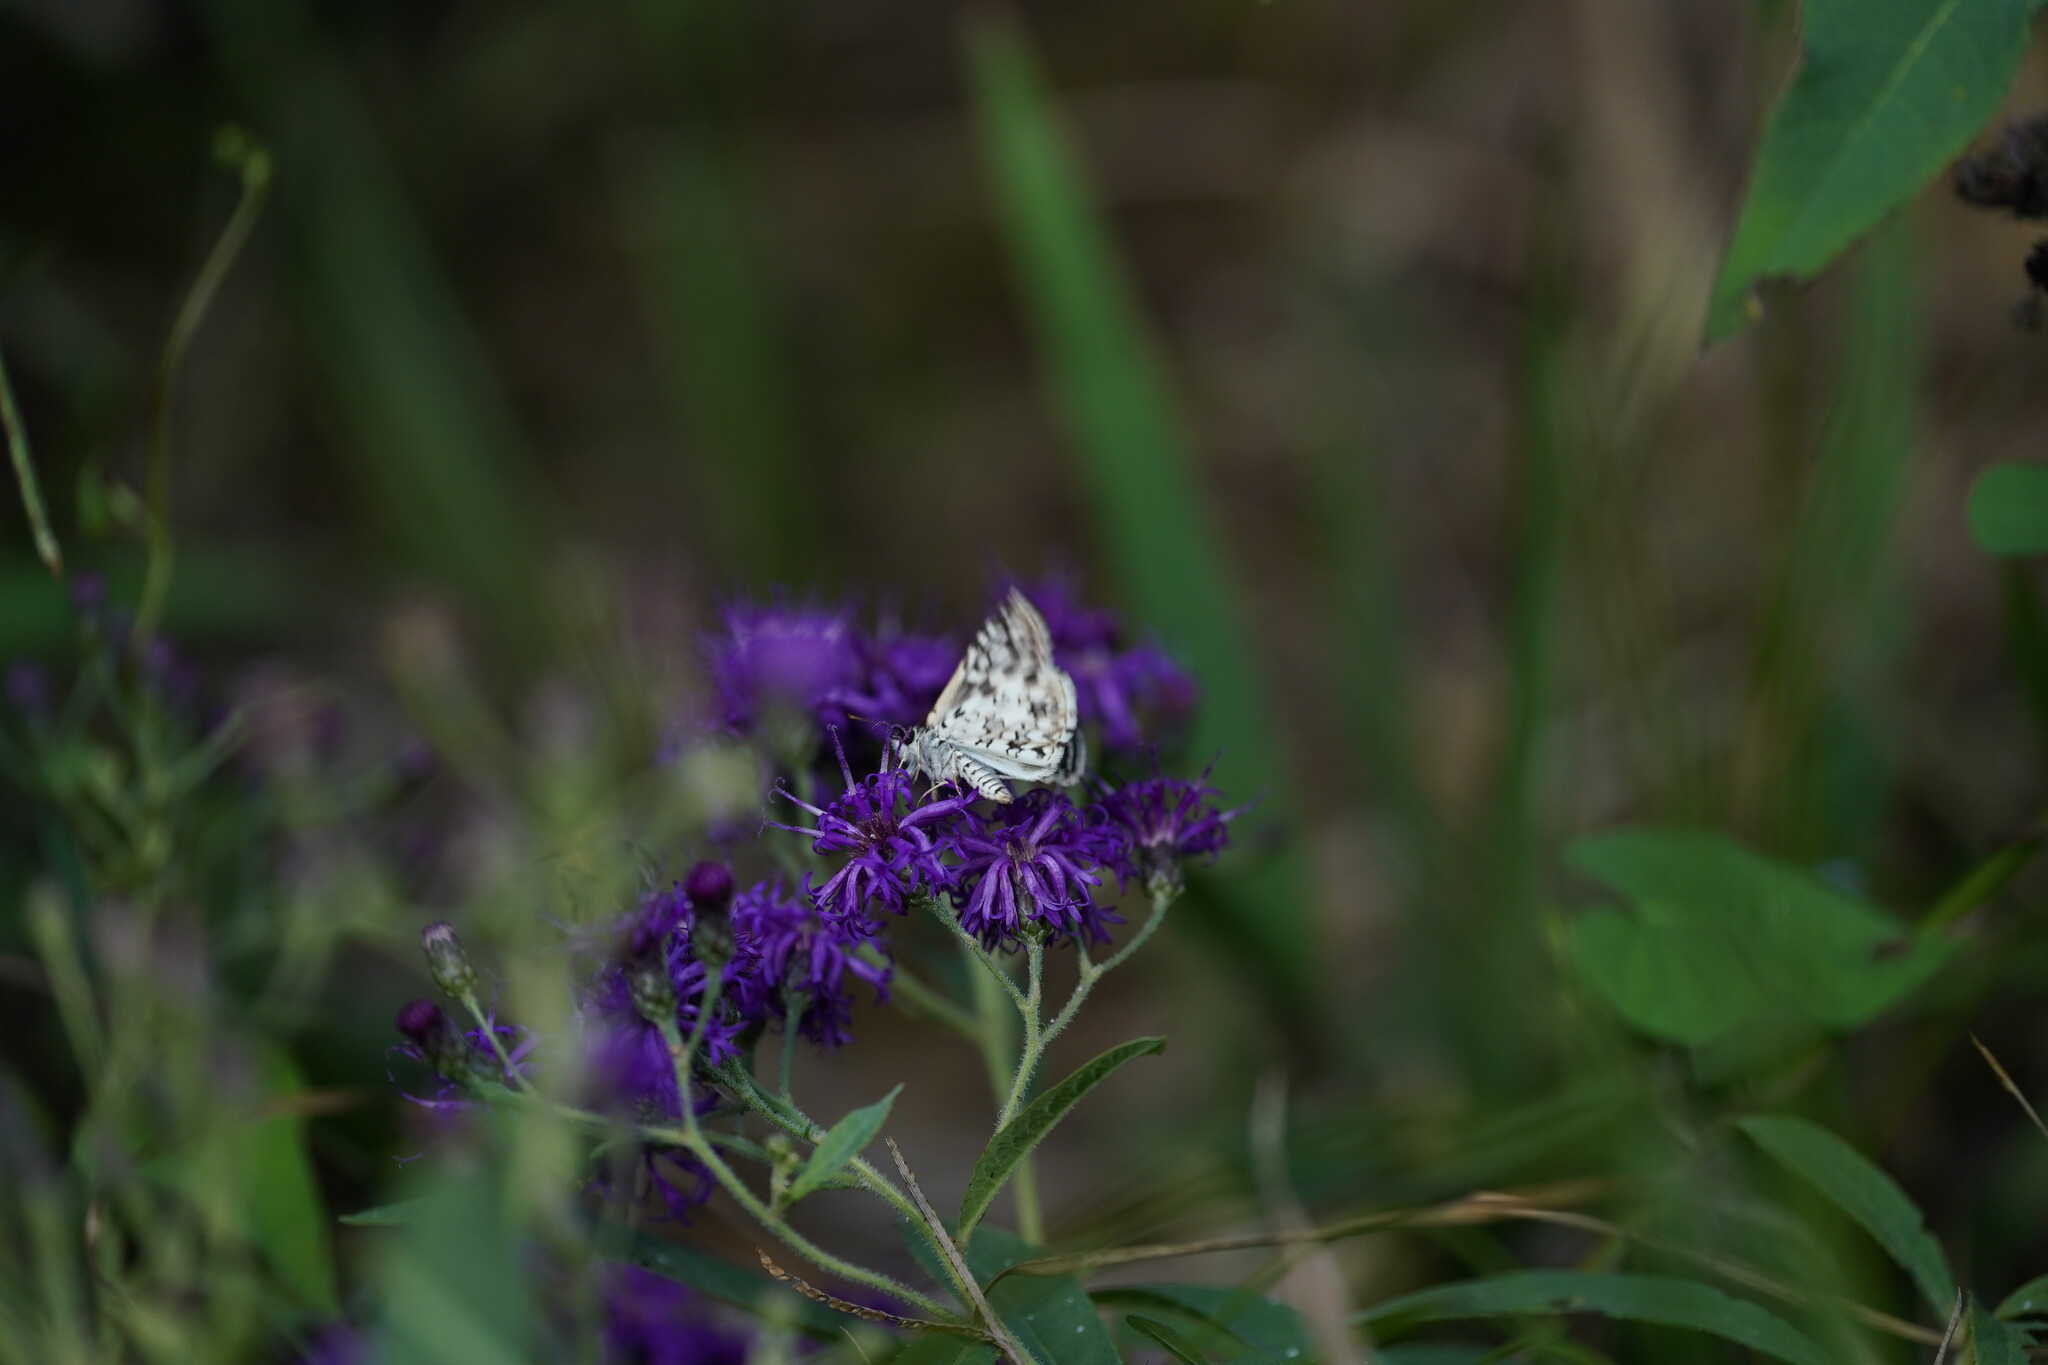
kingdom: Animalia
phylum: Arthropoda
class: Insecta
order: Lepidoptera
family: Hesperiidae
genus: Pyrgus
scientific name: Pyrgus oileus
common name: Tropical checkered-skipper
